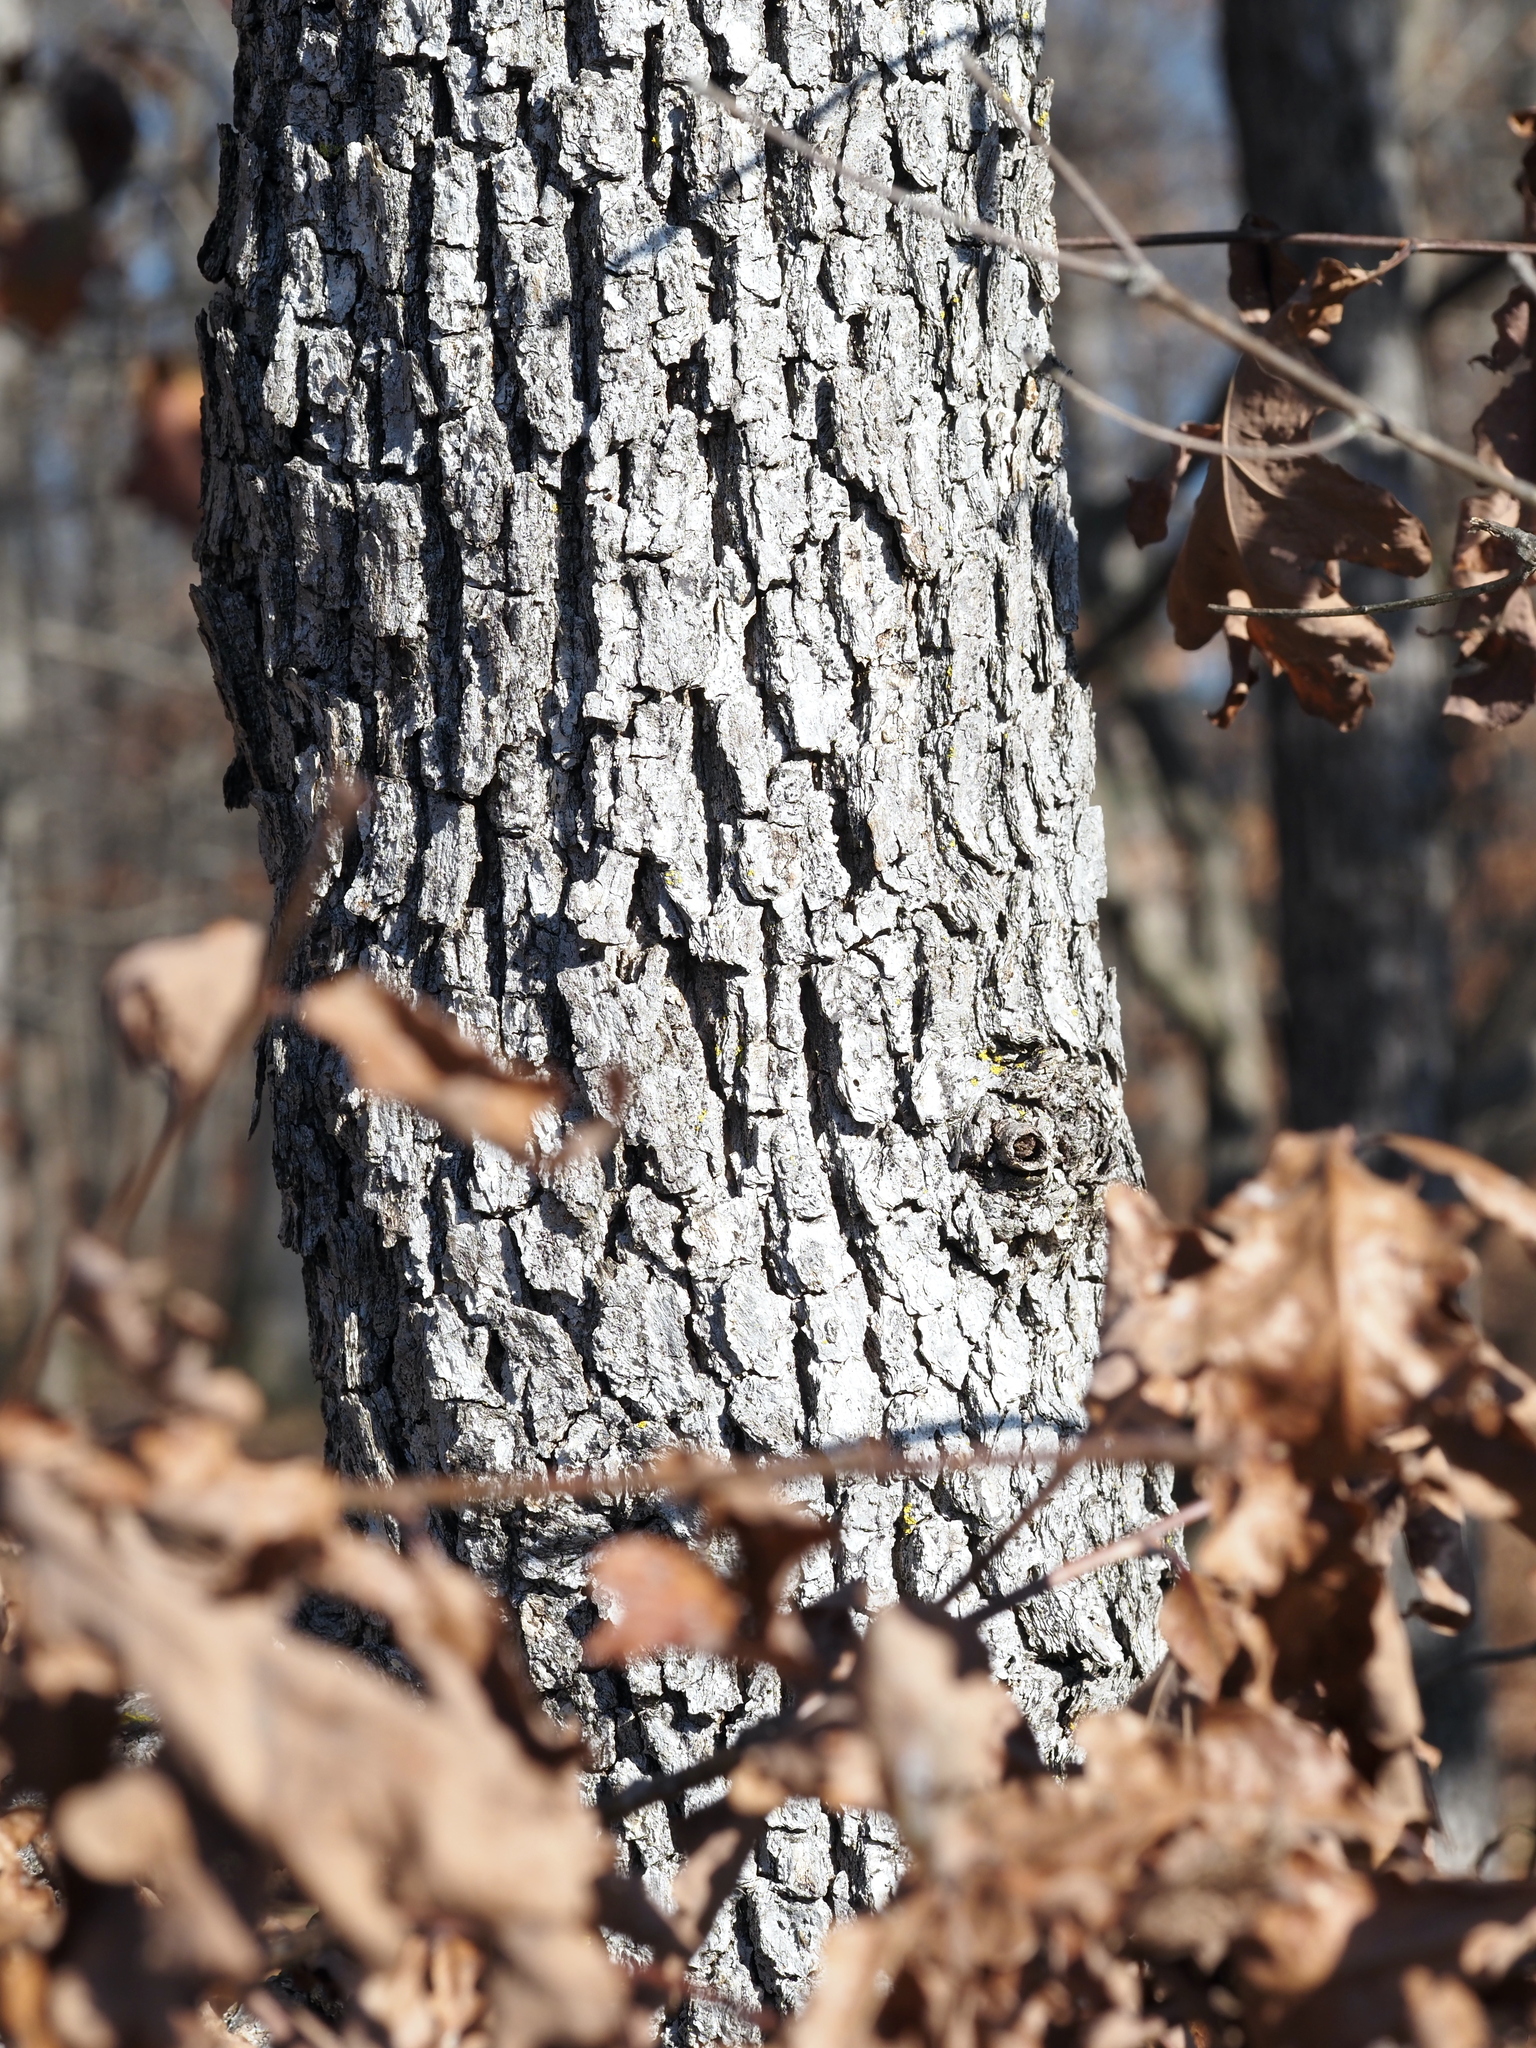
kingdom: Plantae
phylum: Tracheophyta
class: Magnoliopsida
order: Fagales
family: Fagaceae
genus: Quercus
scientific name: Quercus alba
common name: White oak
